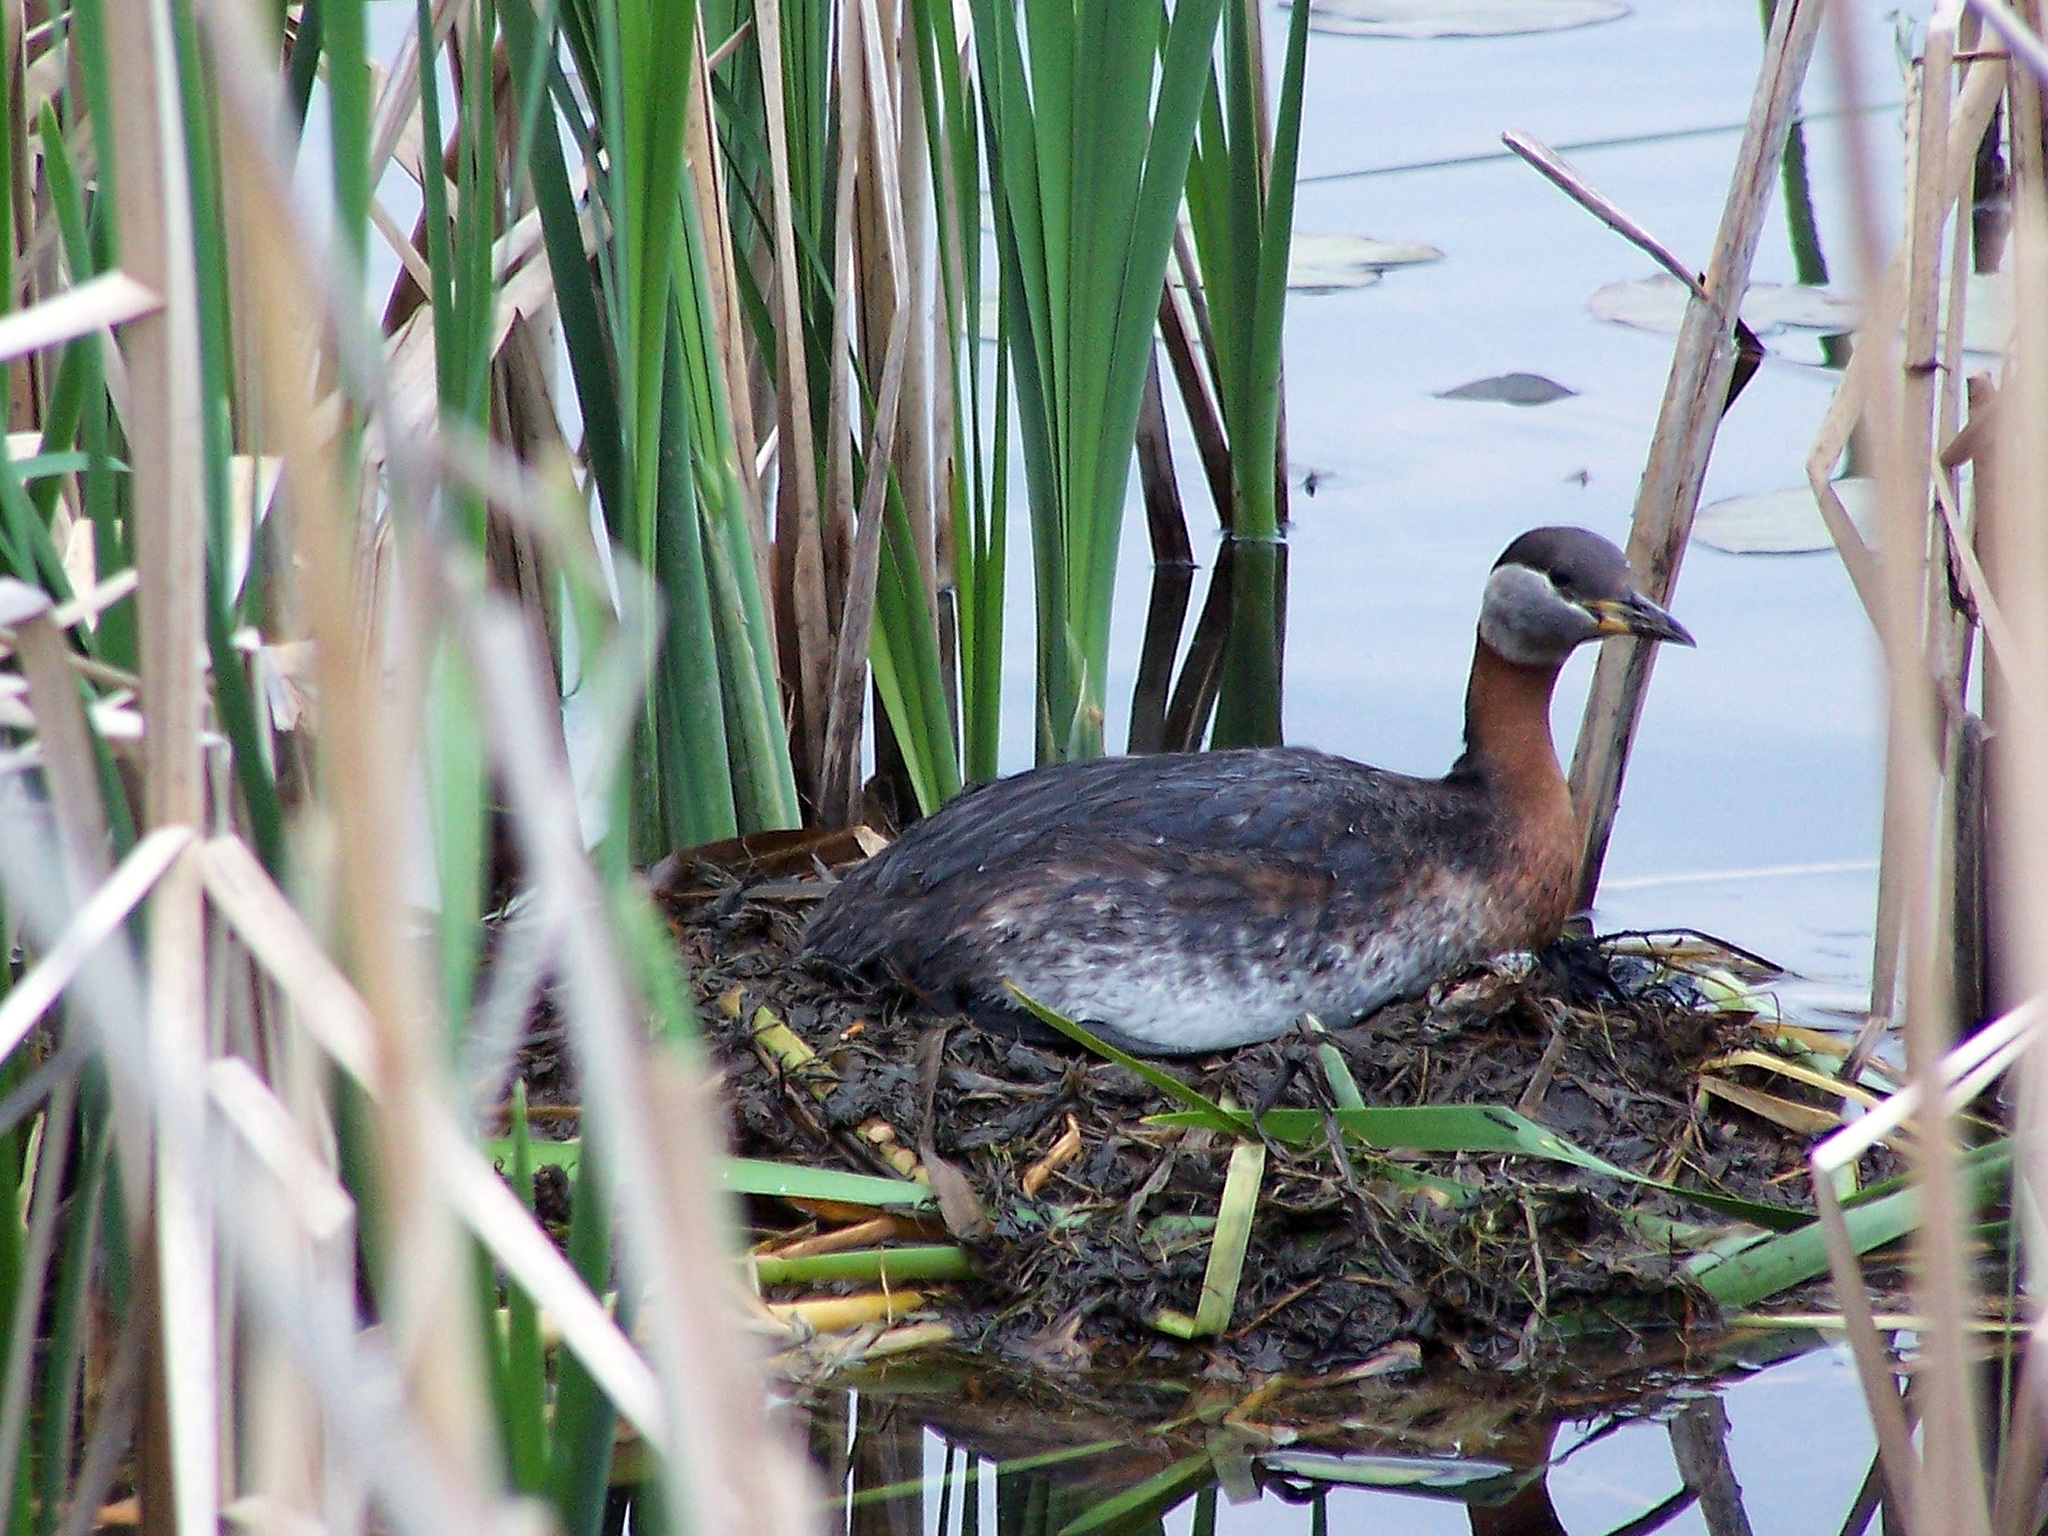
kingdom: Animalia
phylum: Chordata
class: Aves
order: Podicipediformes
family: Podicipedidae
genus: Podiceps
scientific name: Podiceps grisegena
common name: Red-necked grebe
